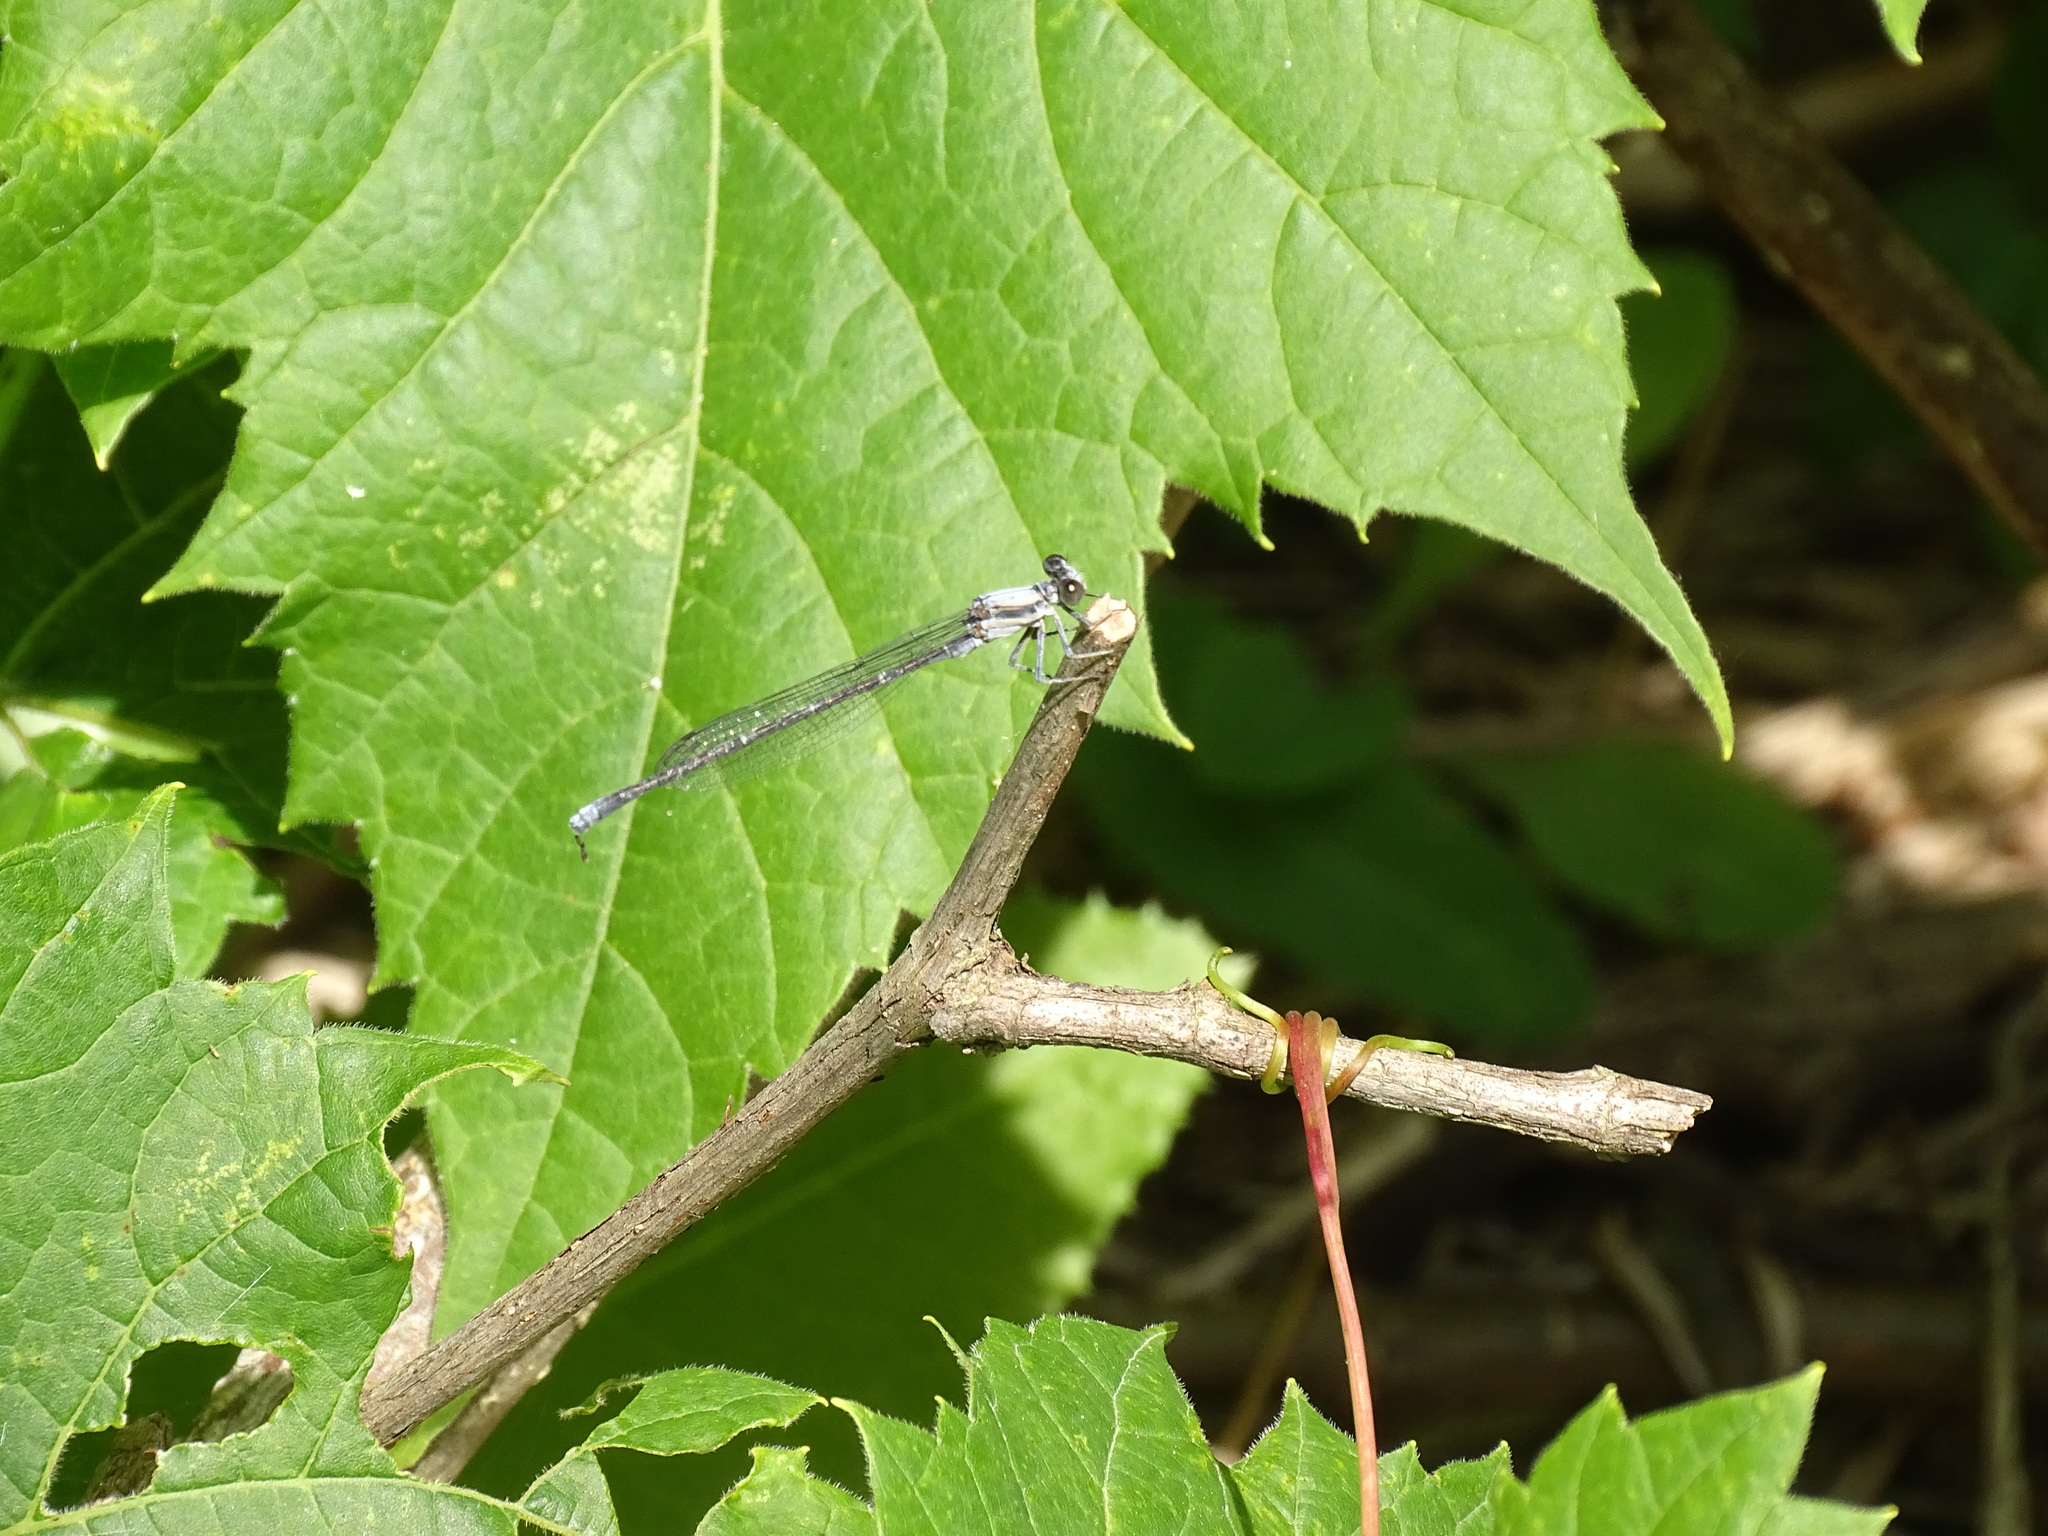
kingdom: Animalia
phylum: Arthropoda
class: Insecta
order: Odonata
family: Coenagrionidae
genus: Argia
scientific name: Argia moesta
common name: Powdered dancer
